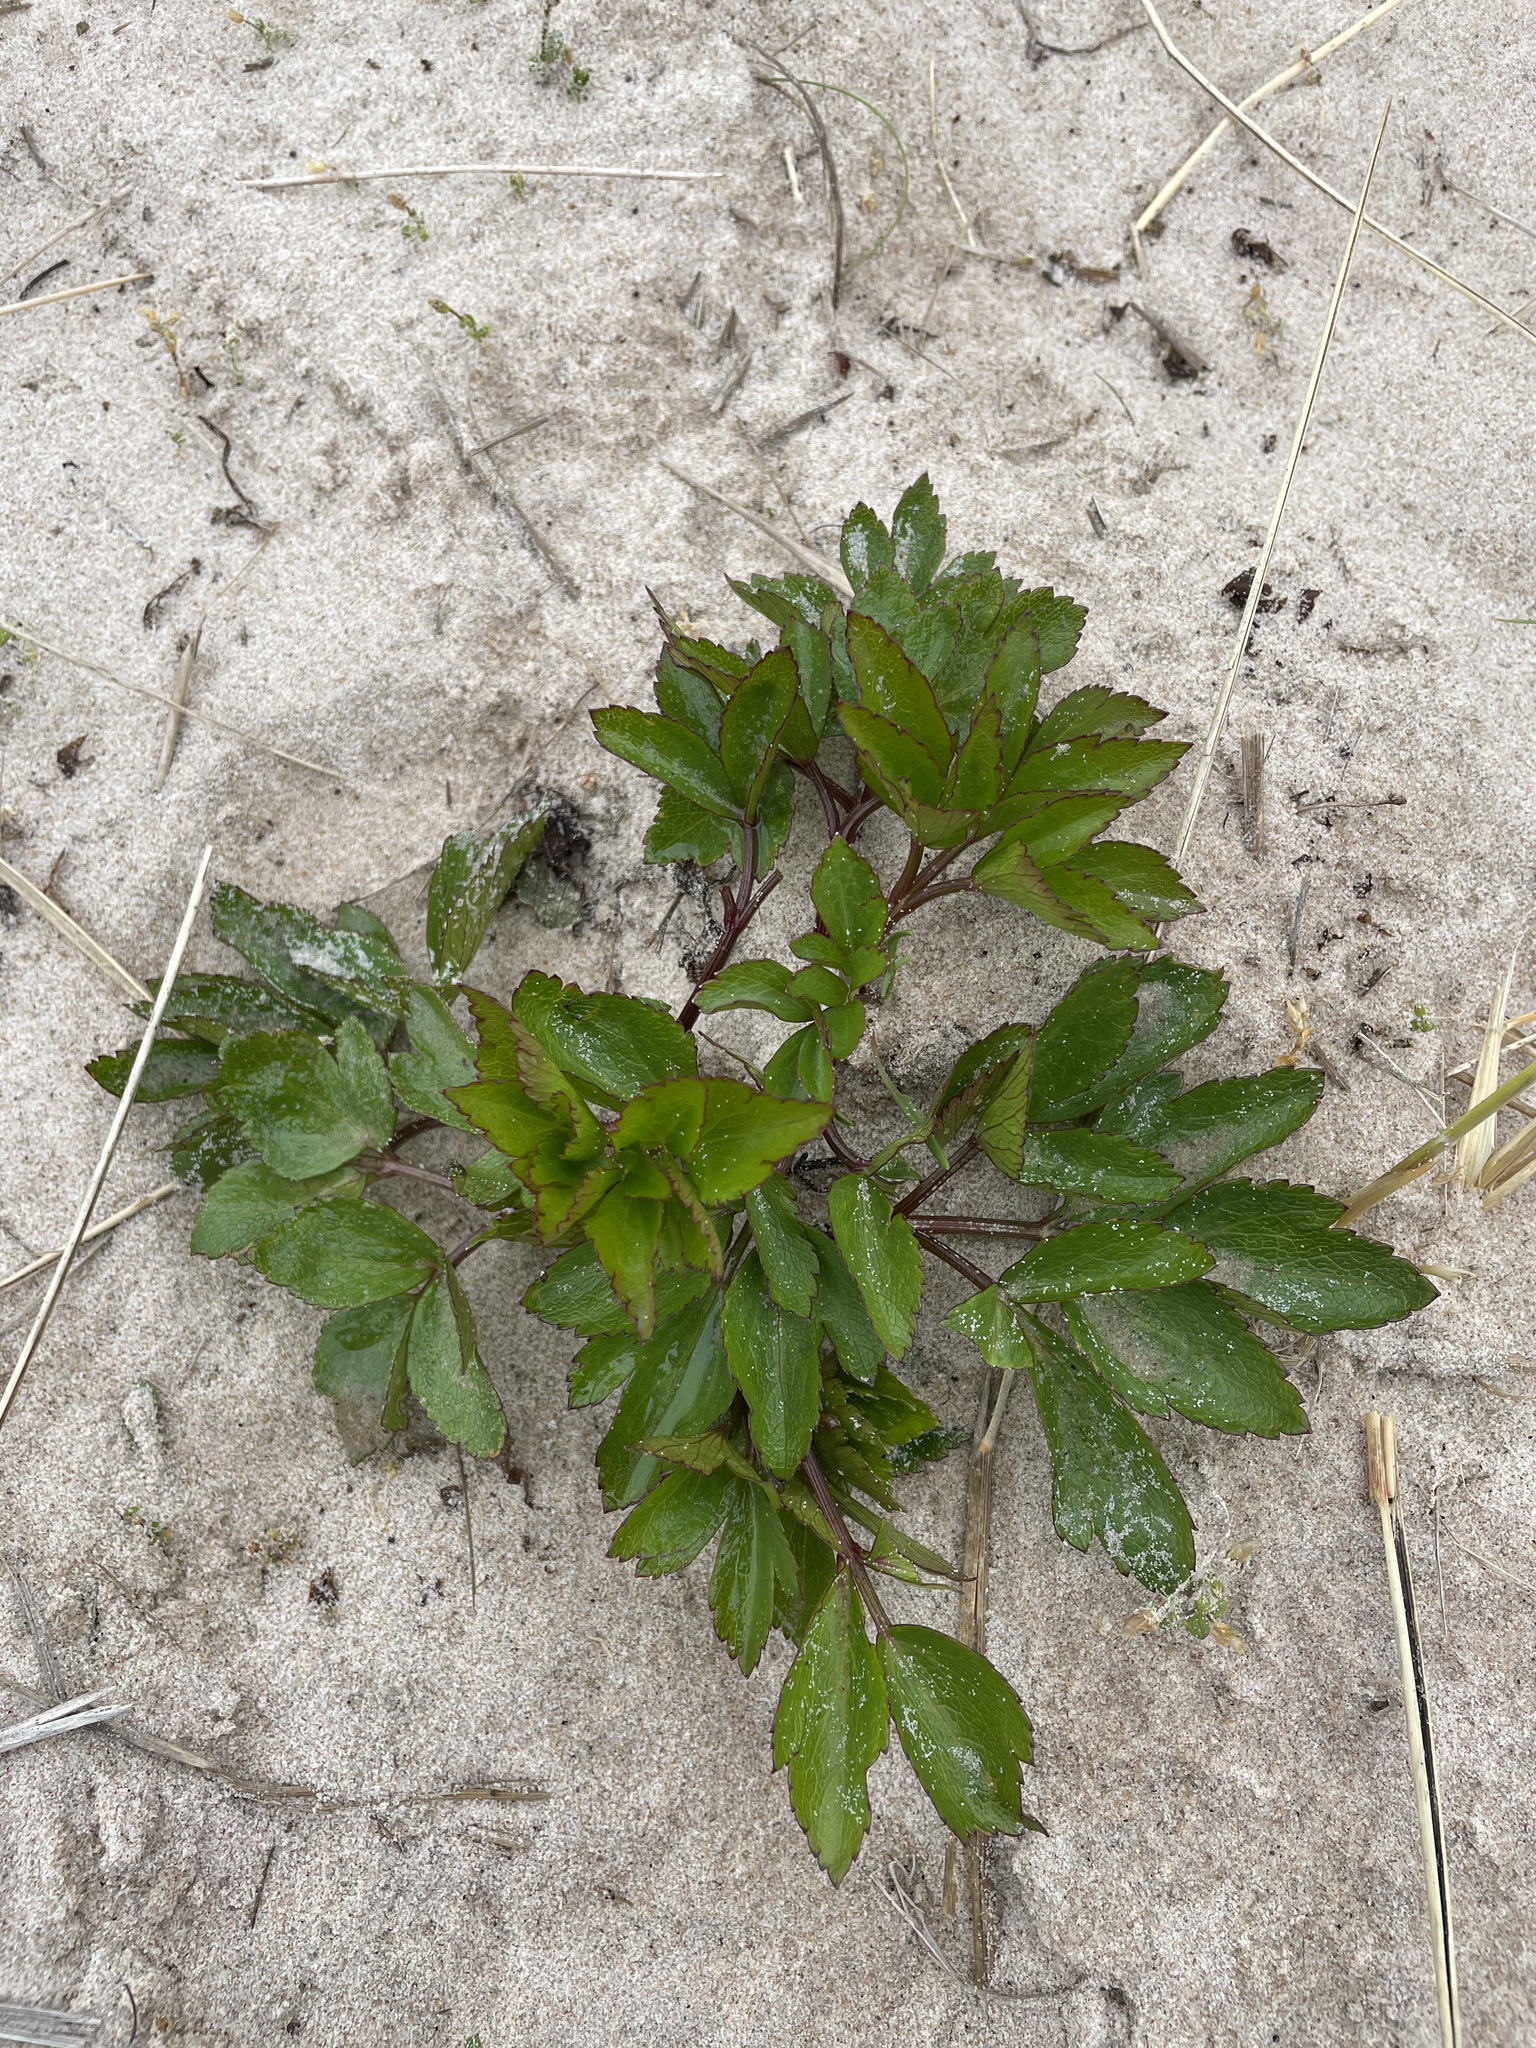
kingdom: Plantae
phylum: Tracheophyta
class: Magnoliopsida
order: Apiales
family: Apiaceae
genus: Ligusticum
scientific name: Ligusticum scothicum
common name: Beach lovage
